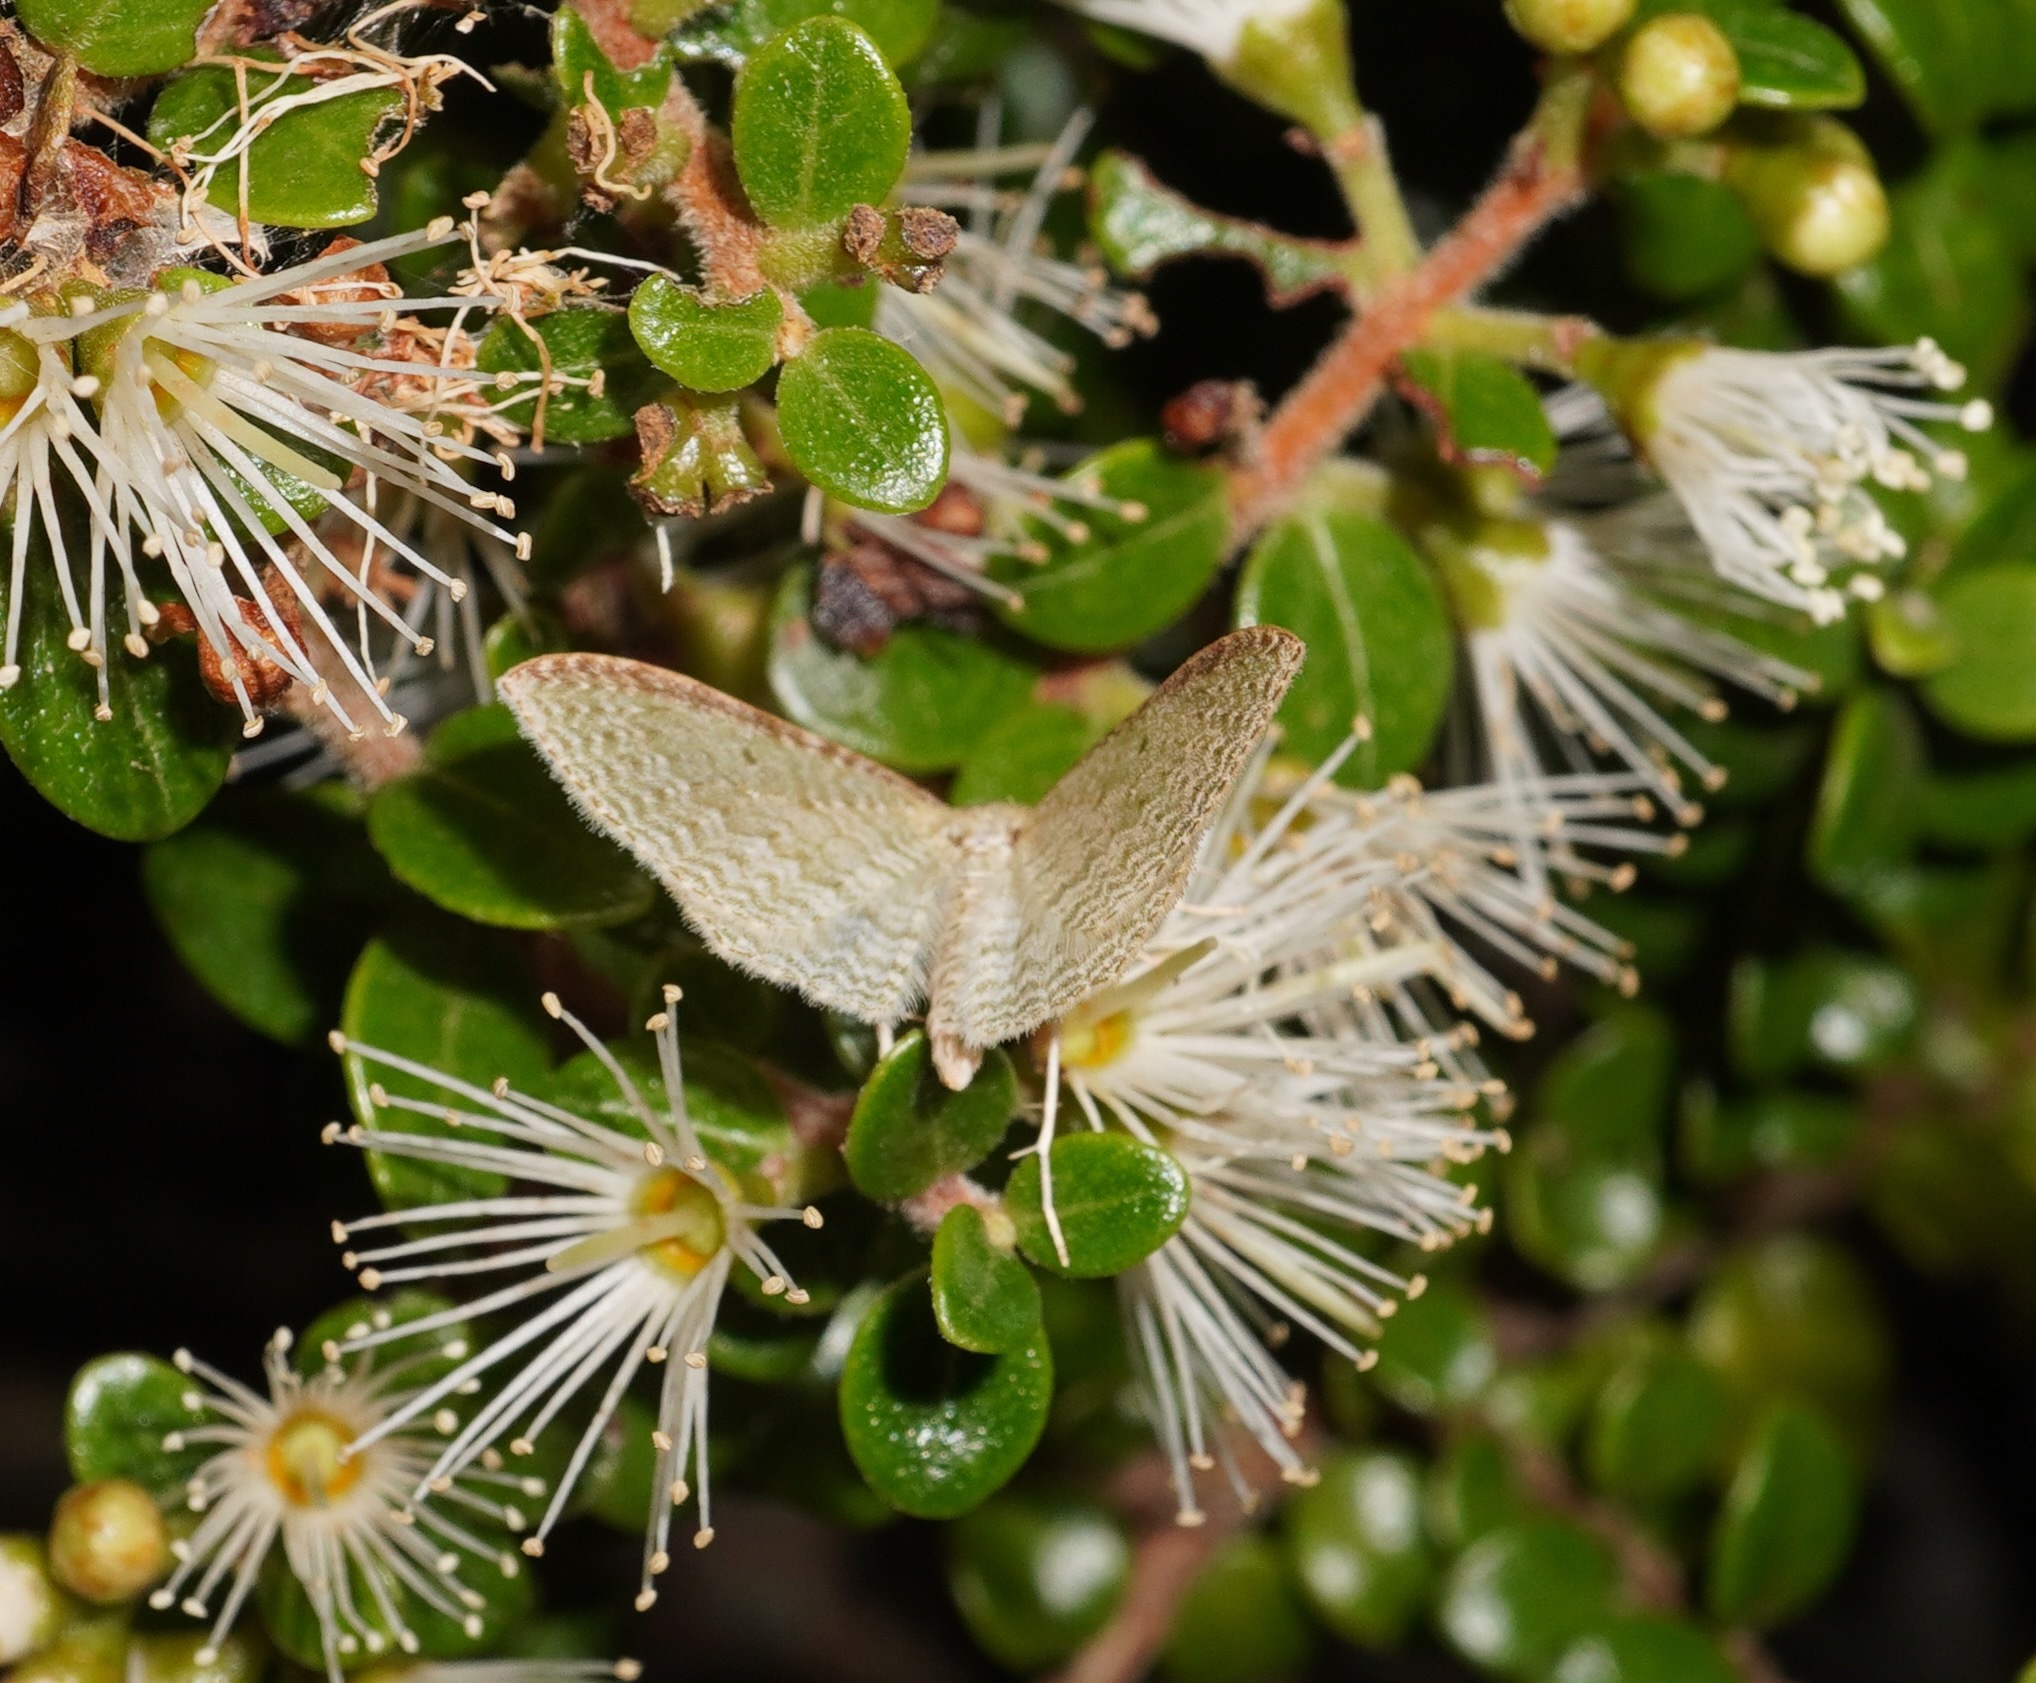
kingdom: Animalia
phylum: Arthropoda
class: Insecta
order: Lepidoptera
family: Geometridae
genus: Poecilasthena
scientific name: Poecilasthena pulchraria
